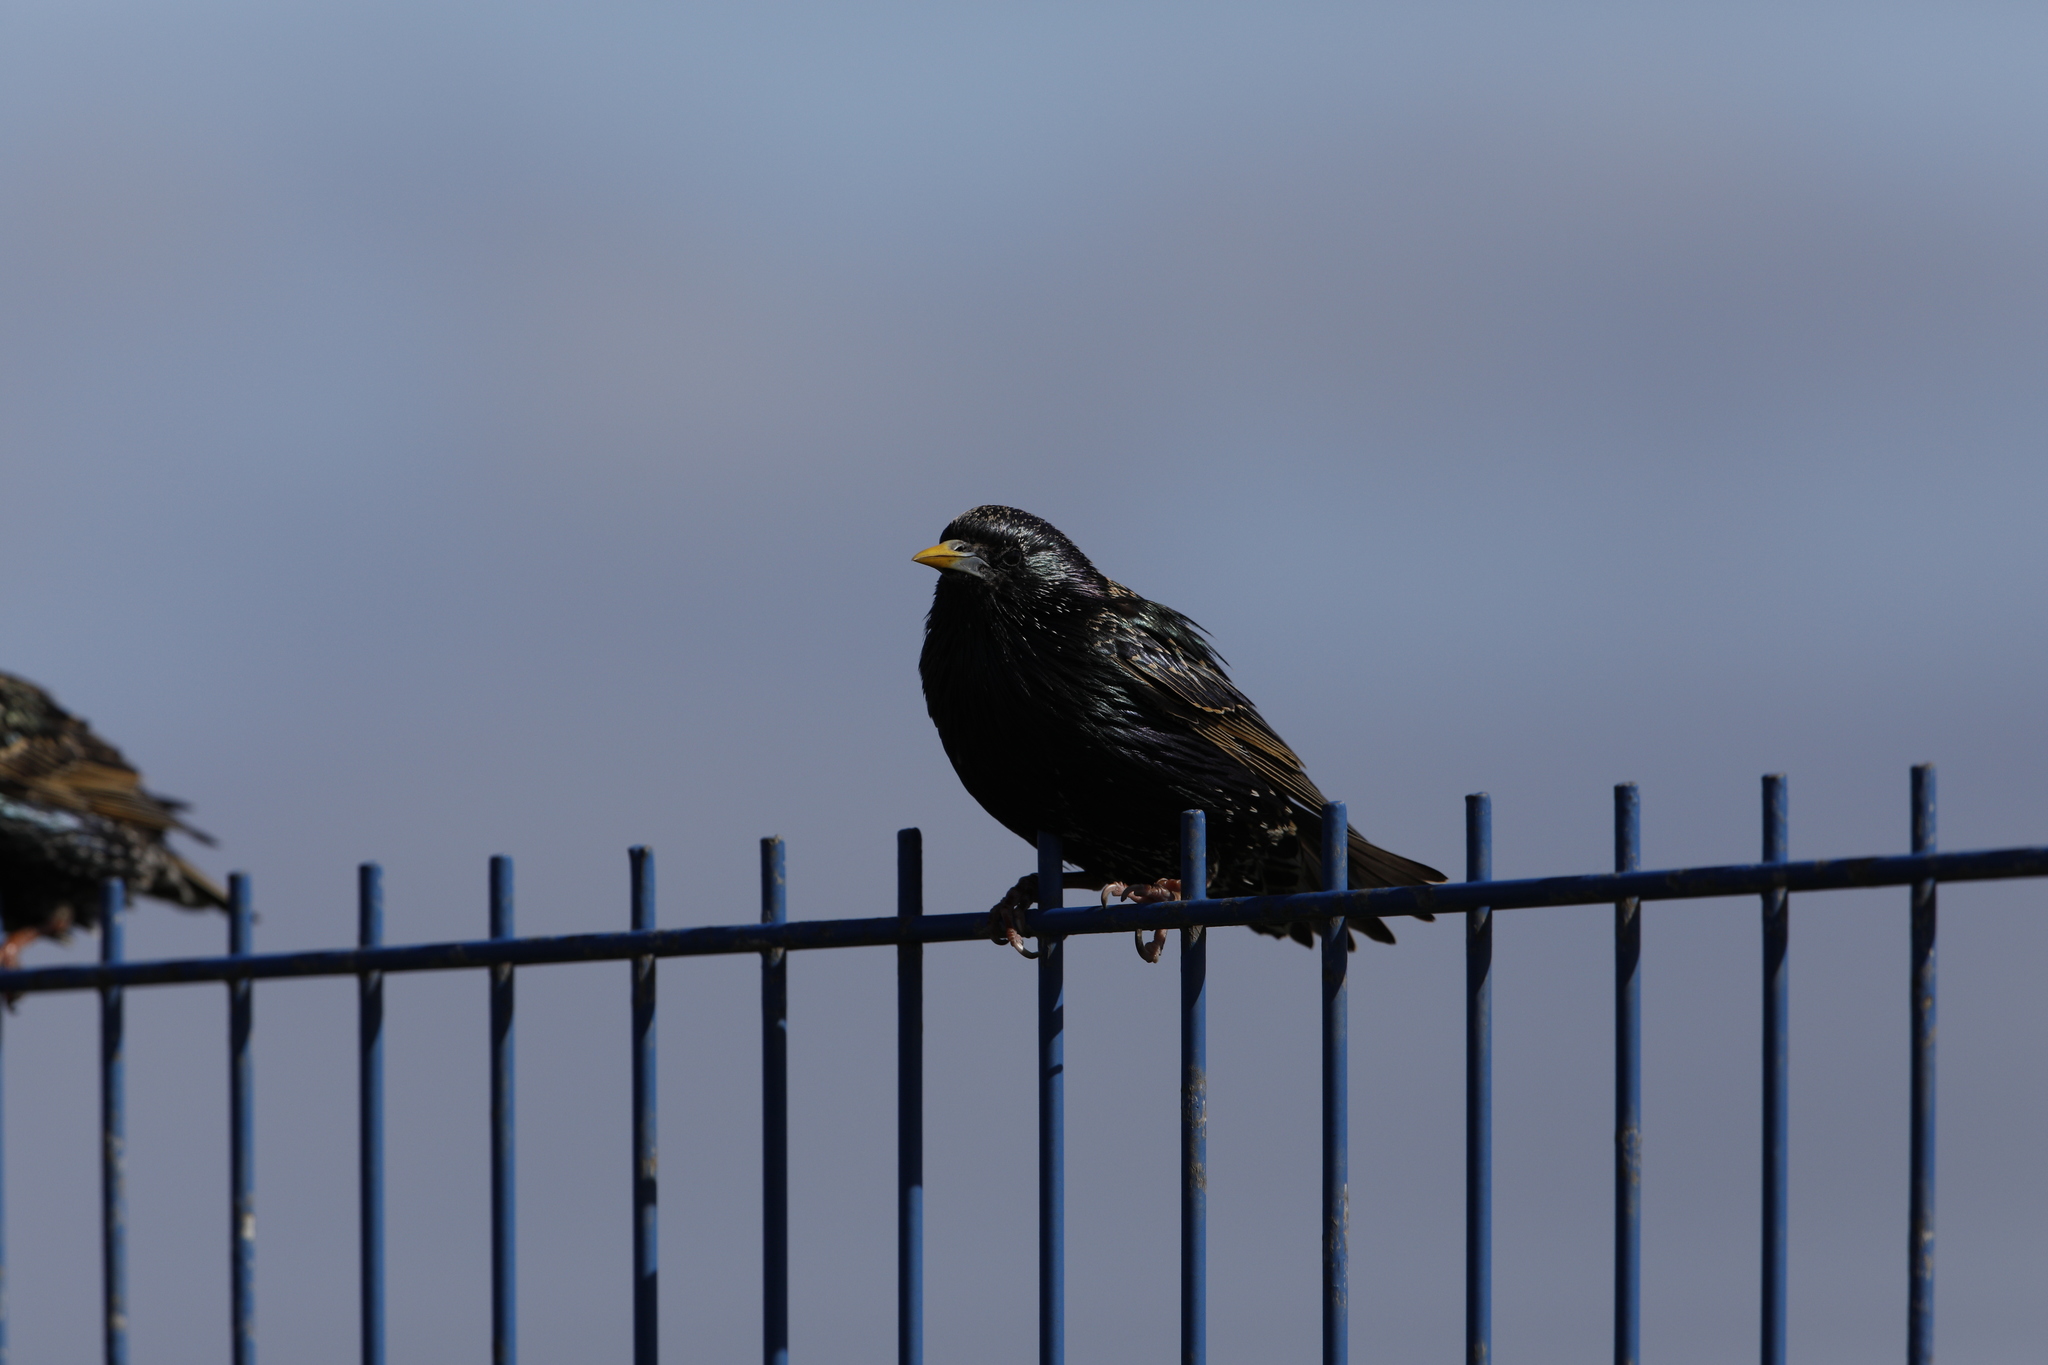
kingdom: Animalia
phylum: Chordata
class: Aves
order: Passeriformes
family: Sturnidae
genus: Sturnus
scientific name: Sturnus vulgaris
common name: Common starling
